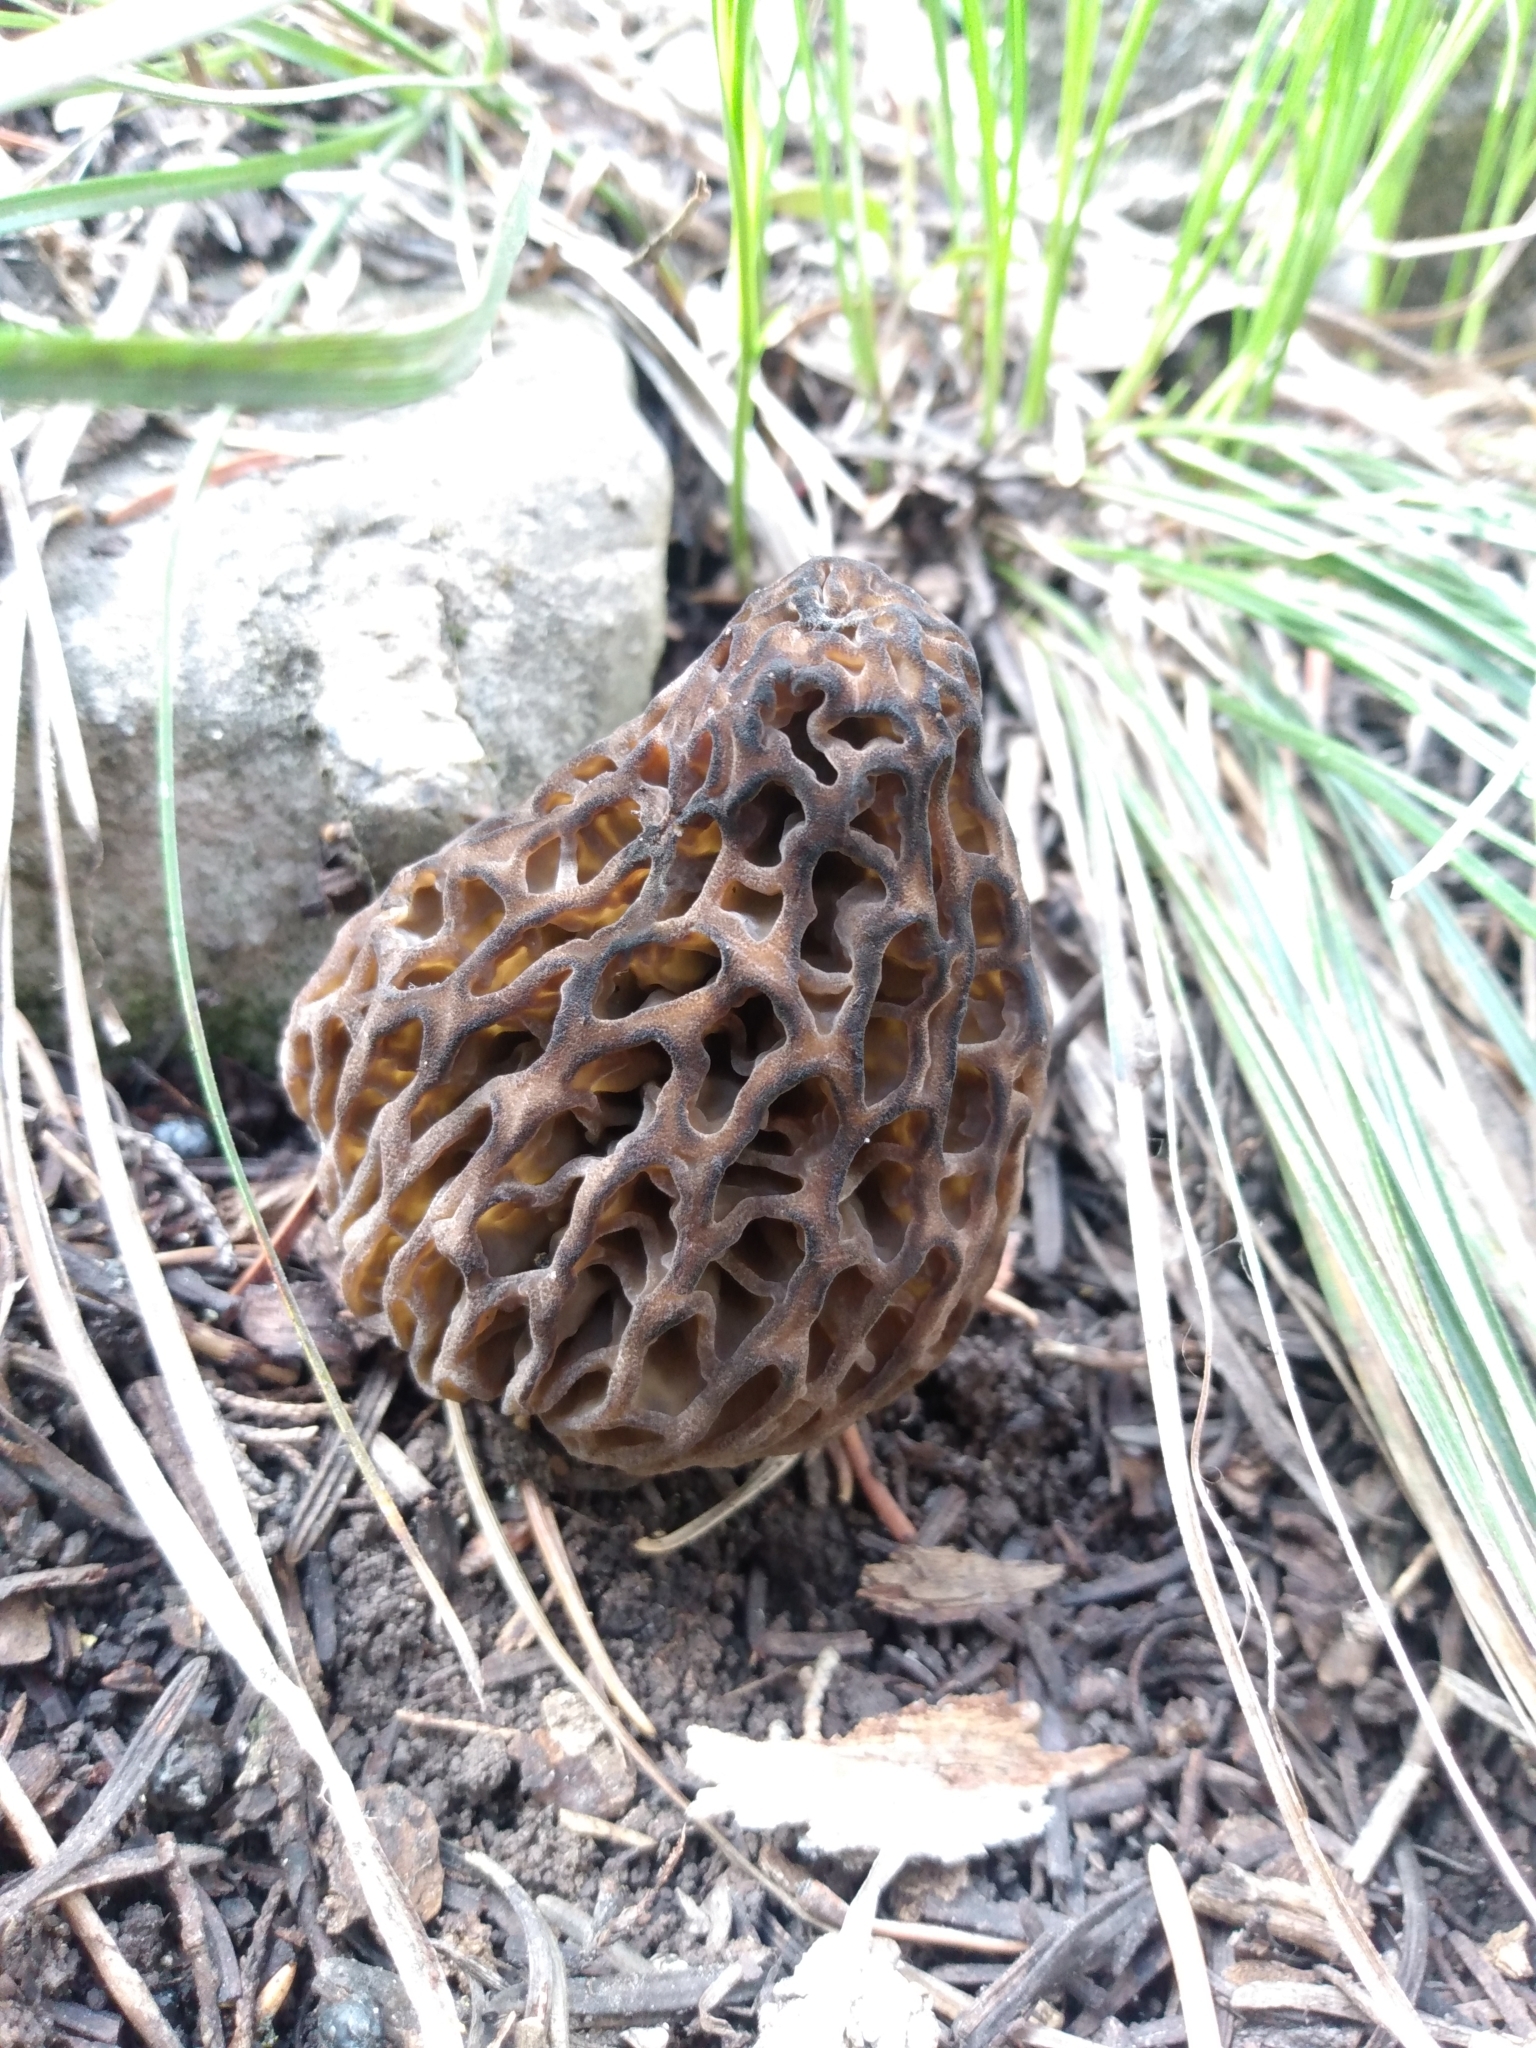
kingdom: Fungi
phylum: Ascomycota
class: Pezizomycetes
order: Pezizales
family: Morchellaceae
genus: Morchella
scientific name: Morchella snyderi
